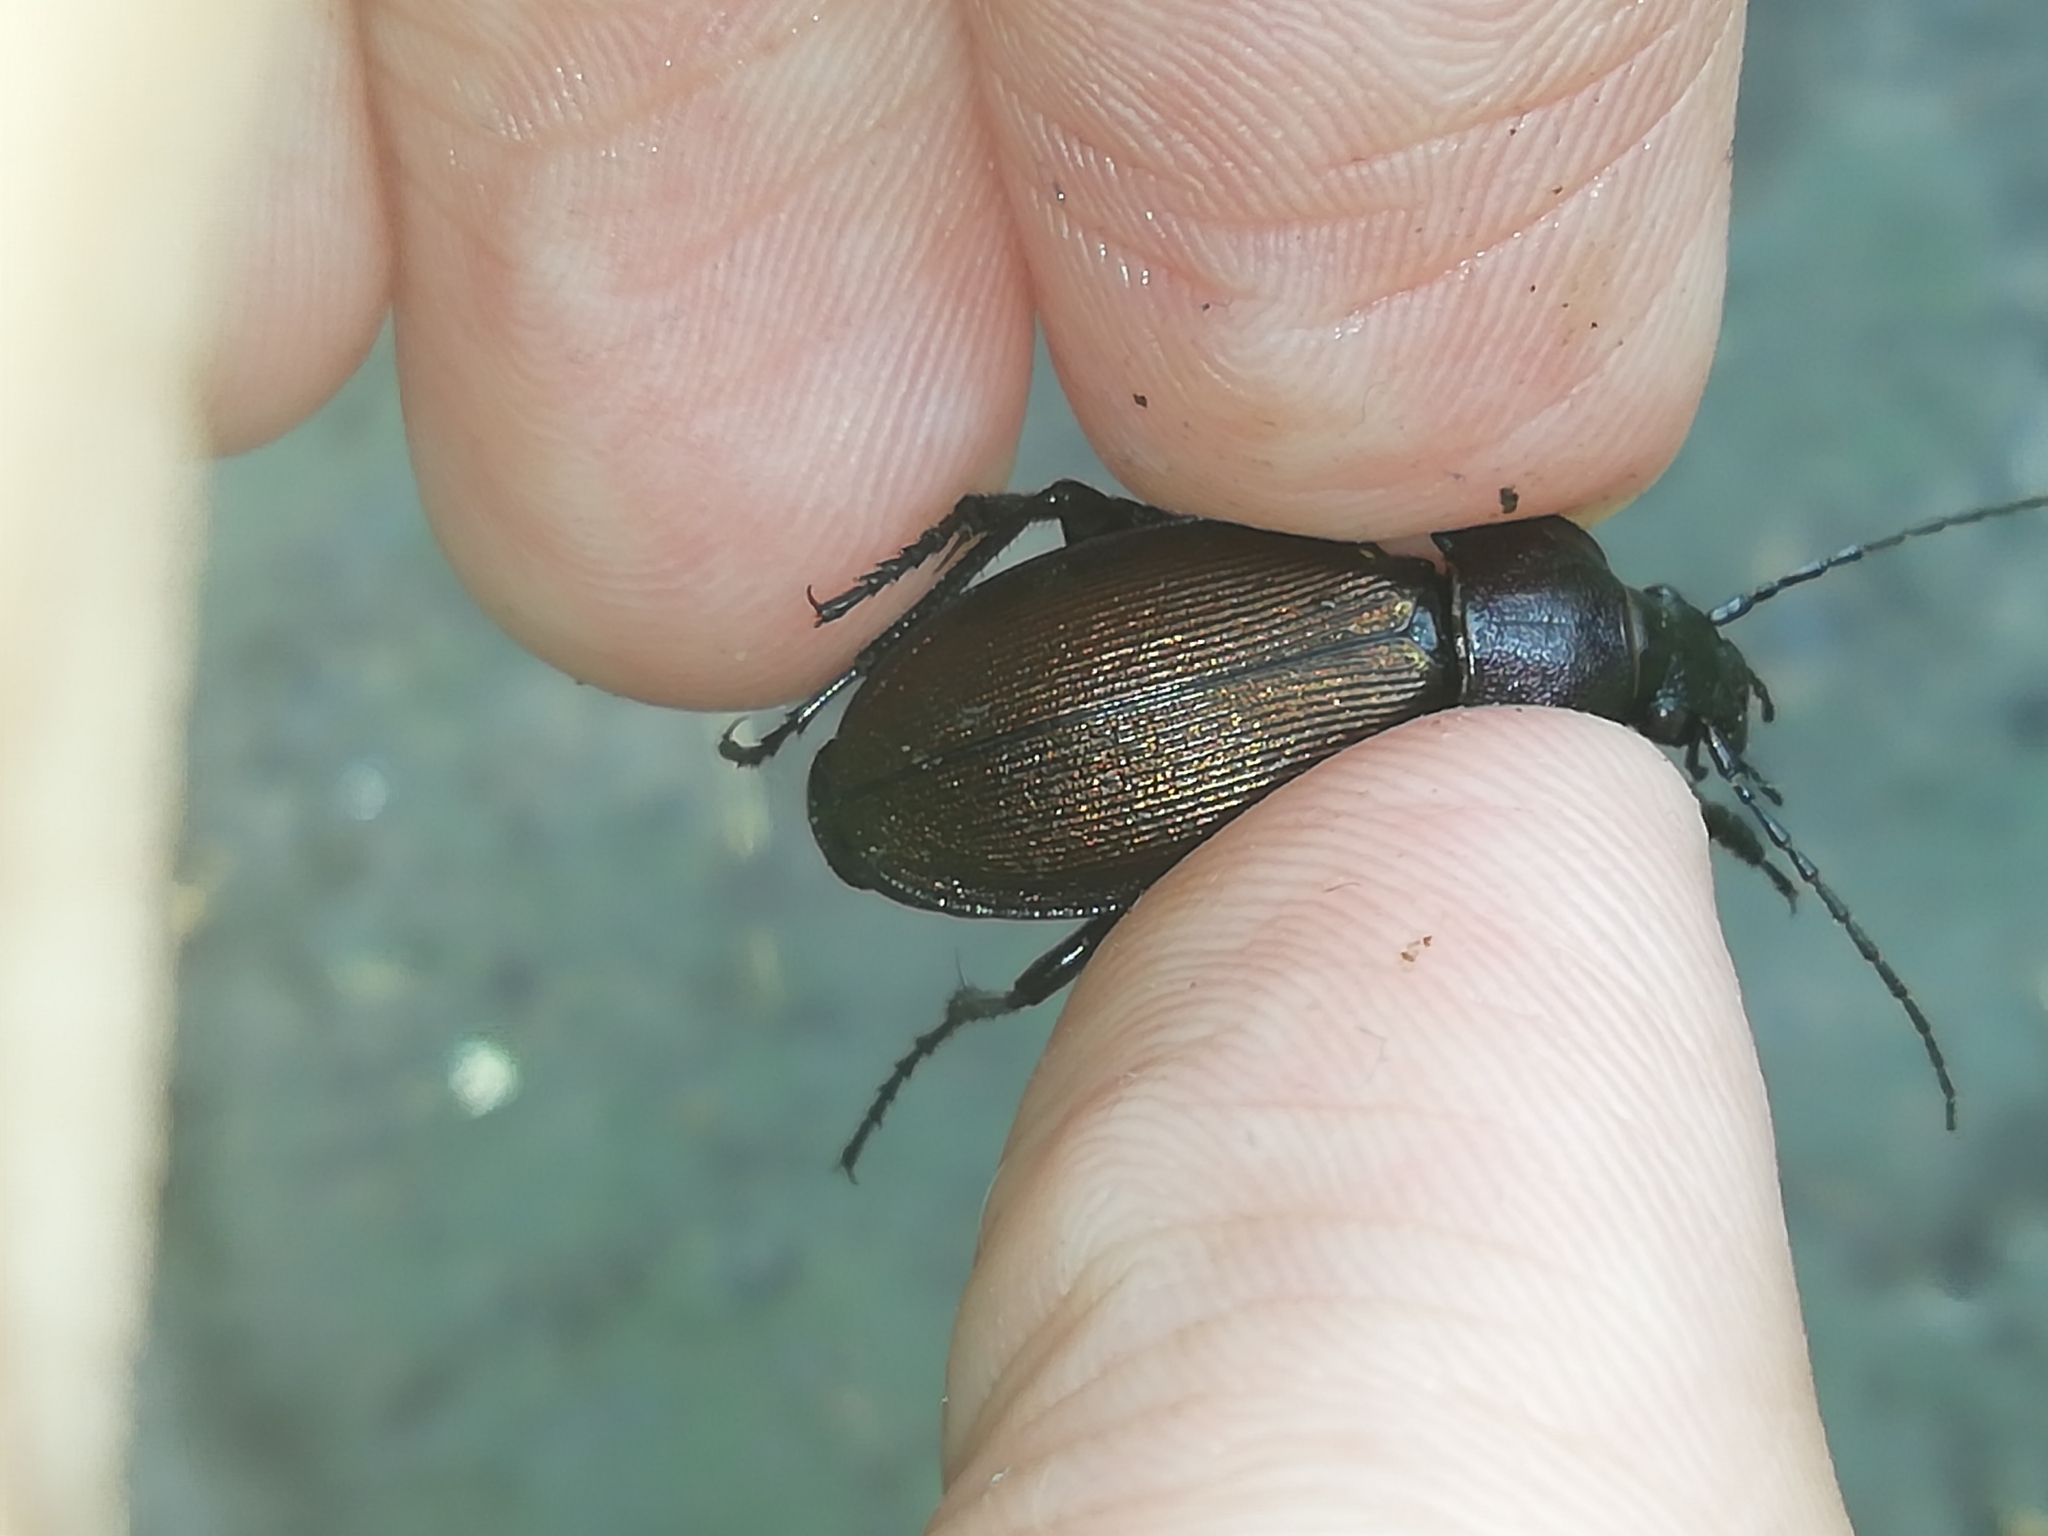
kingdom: Animalia
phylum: Arthropoda
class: Insecta
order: Coleoptera
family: Carabidae
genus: Carabus
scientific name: Carabus regalis
